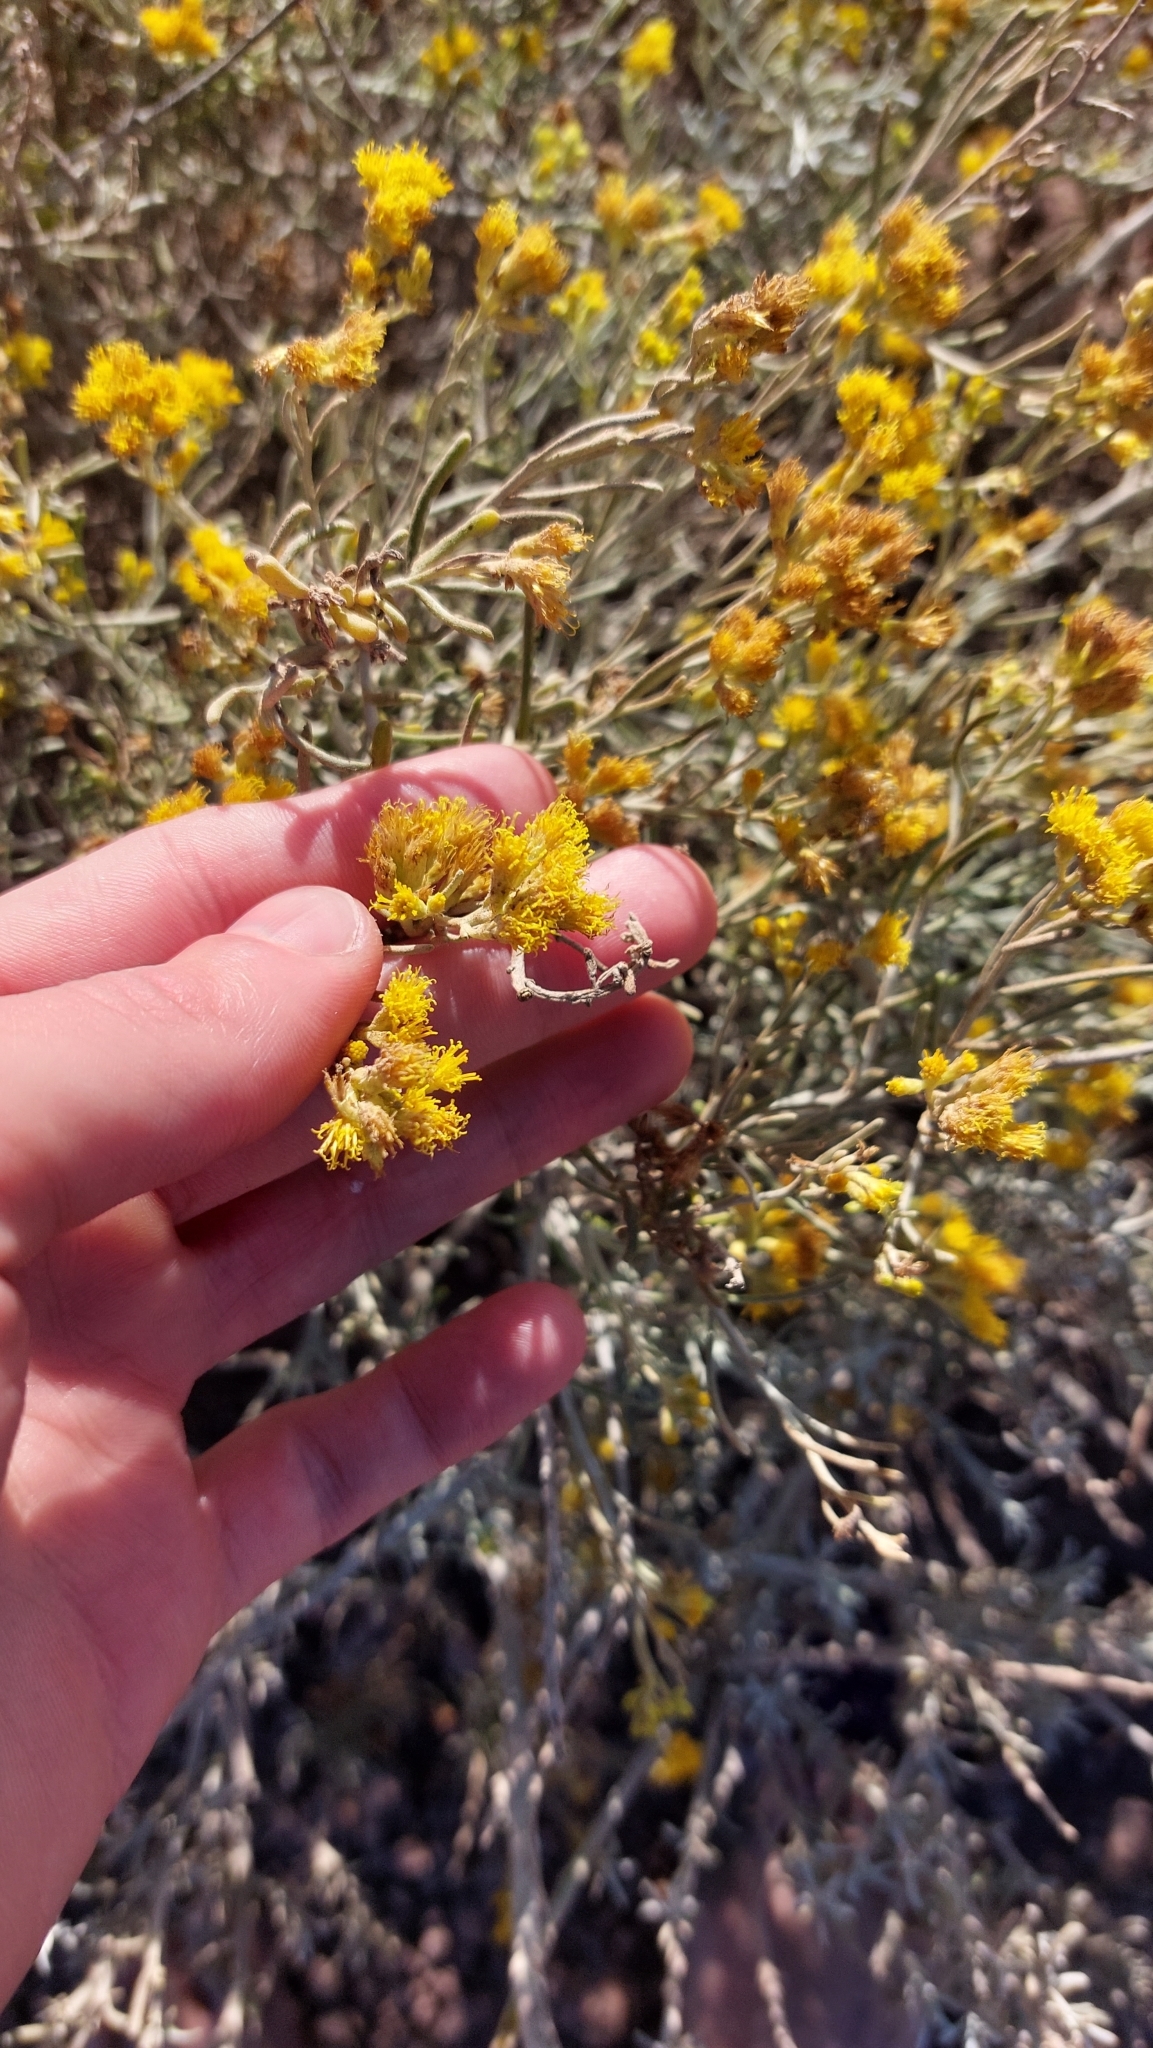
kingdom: Plantae
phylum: Tracheophyta
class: Magnoliopsida
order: Asterales
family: Asteraceae
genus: Schizogyne
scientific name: Schizogyne sericea
